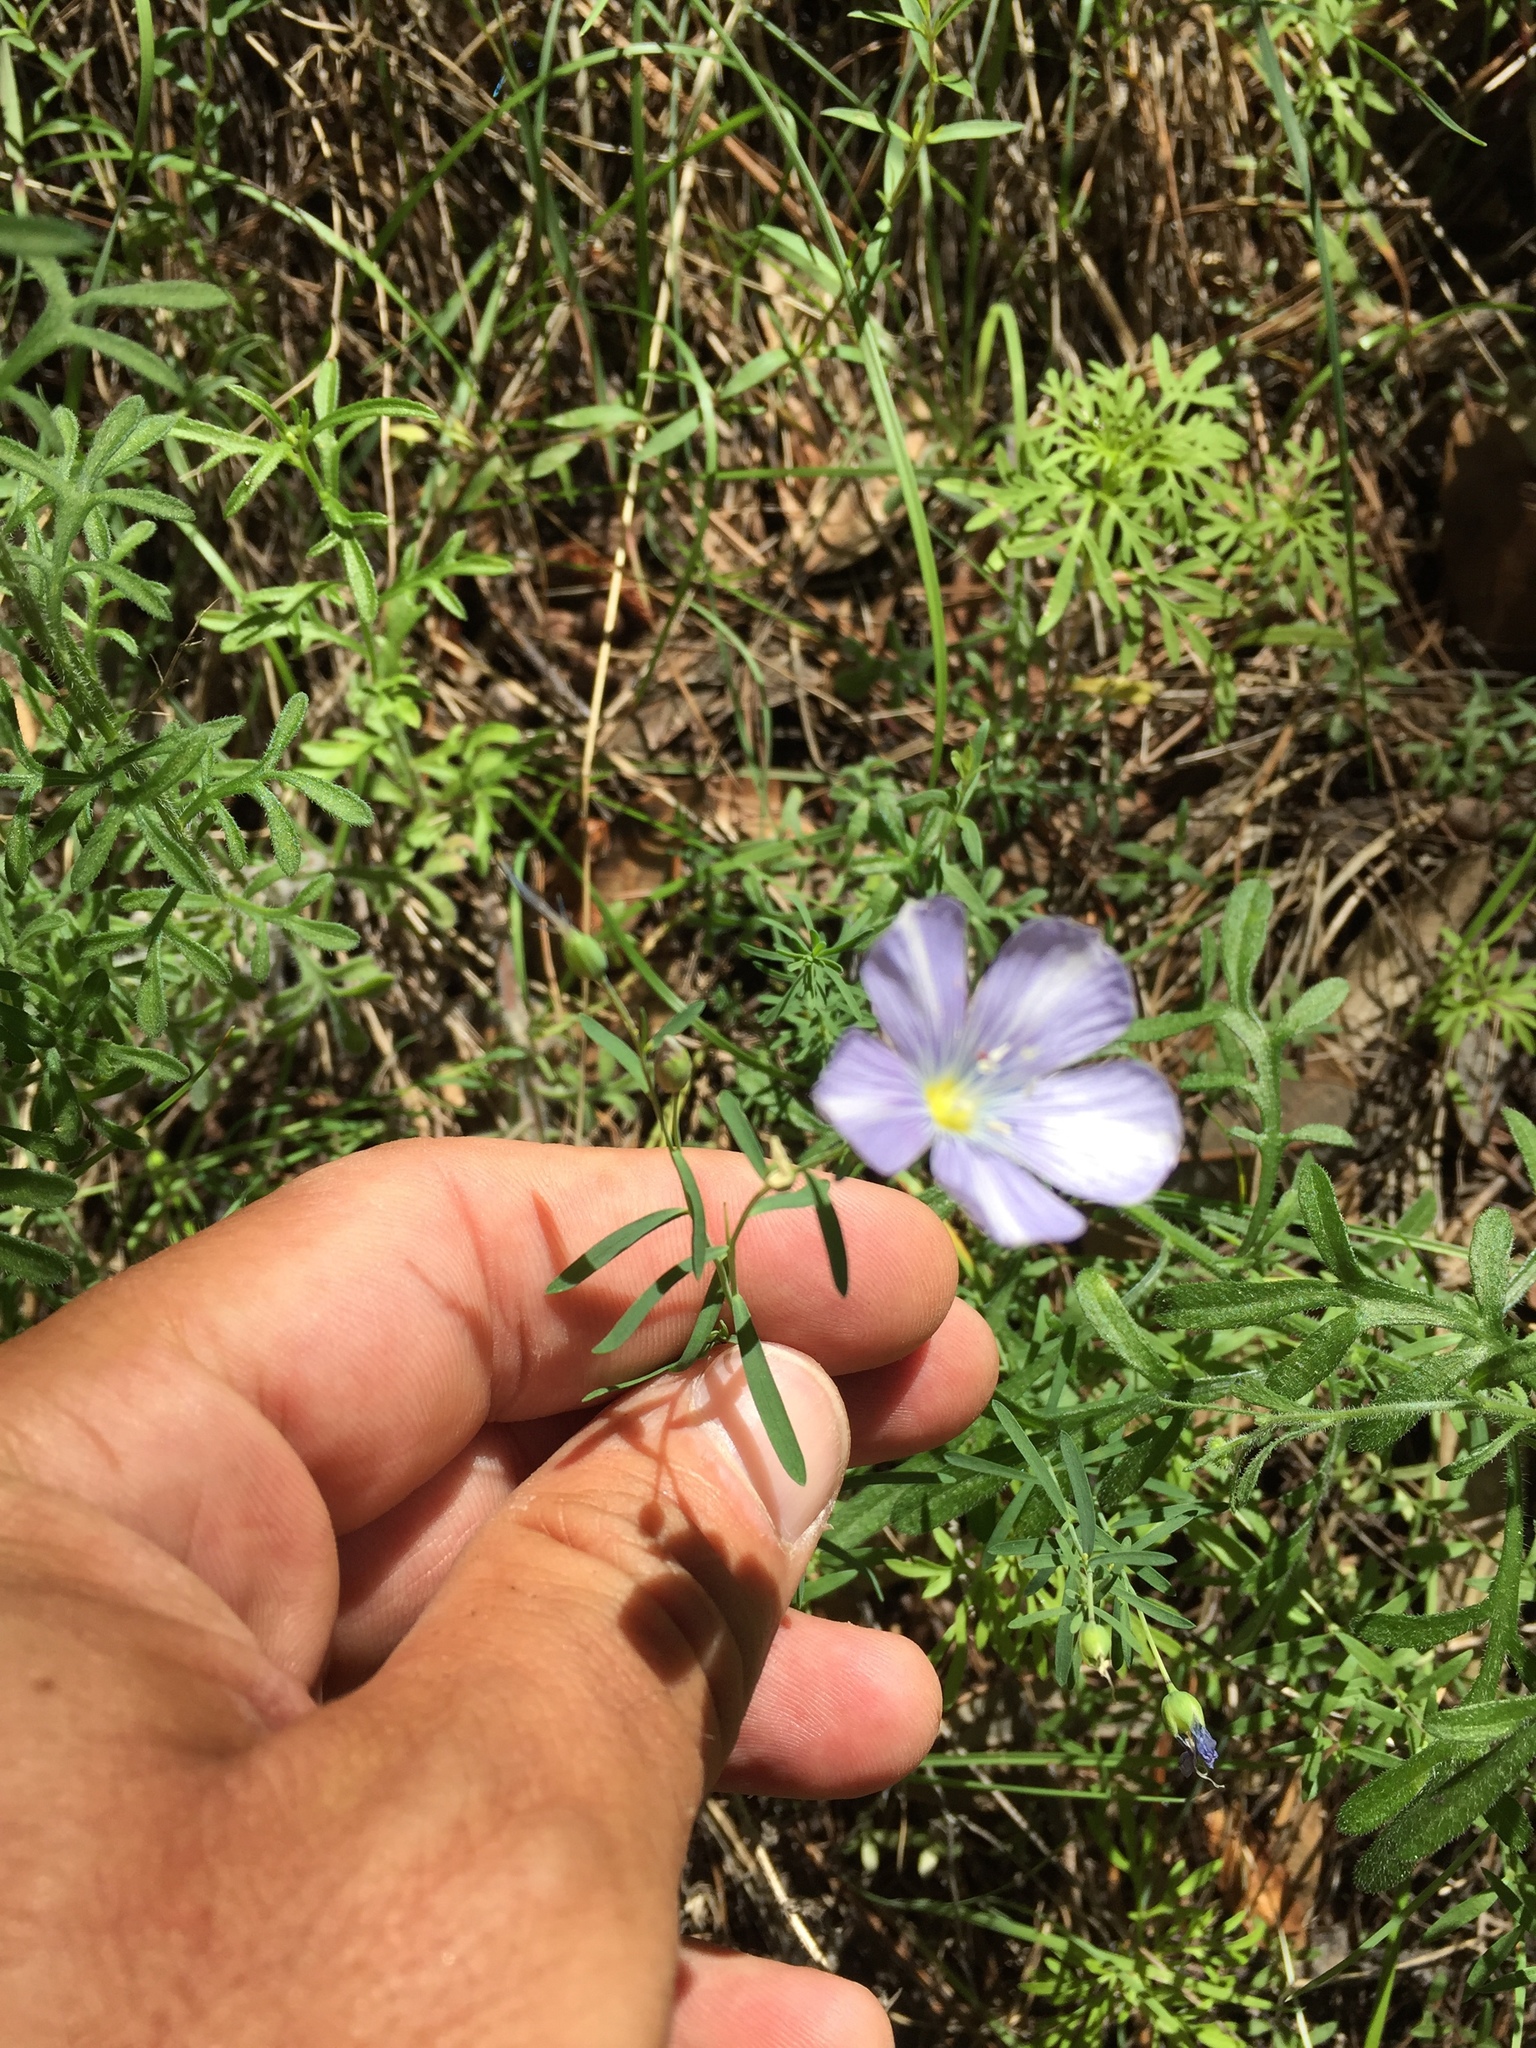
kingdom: Plantae
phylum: Tracheophyta
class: Magnoliopsida
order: Malpighiales
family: Linaceae
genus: Linum
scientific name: Linum lewisii
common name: Prairie flax
